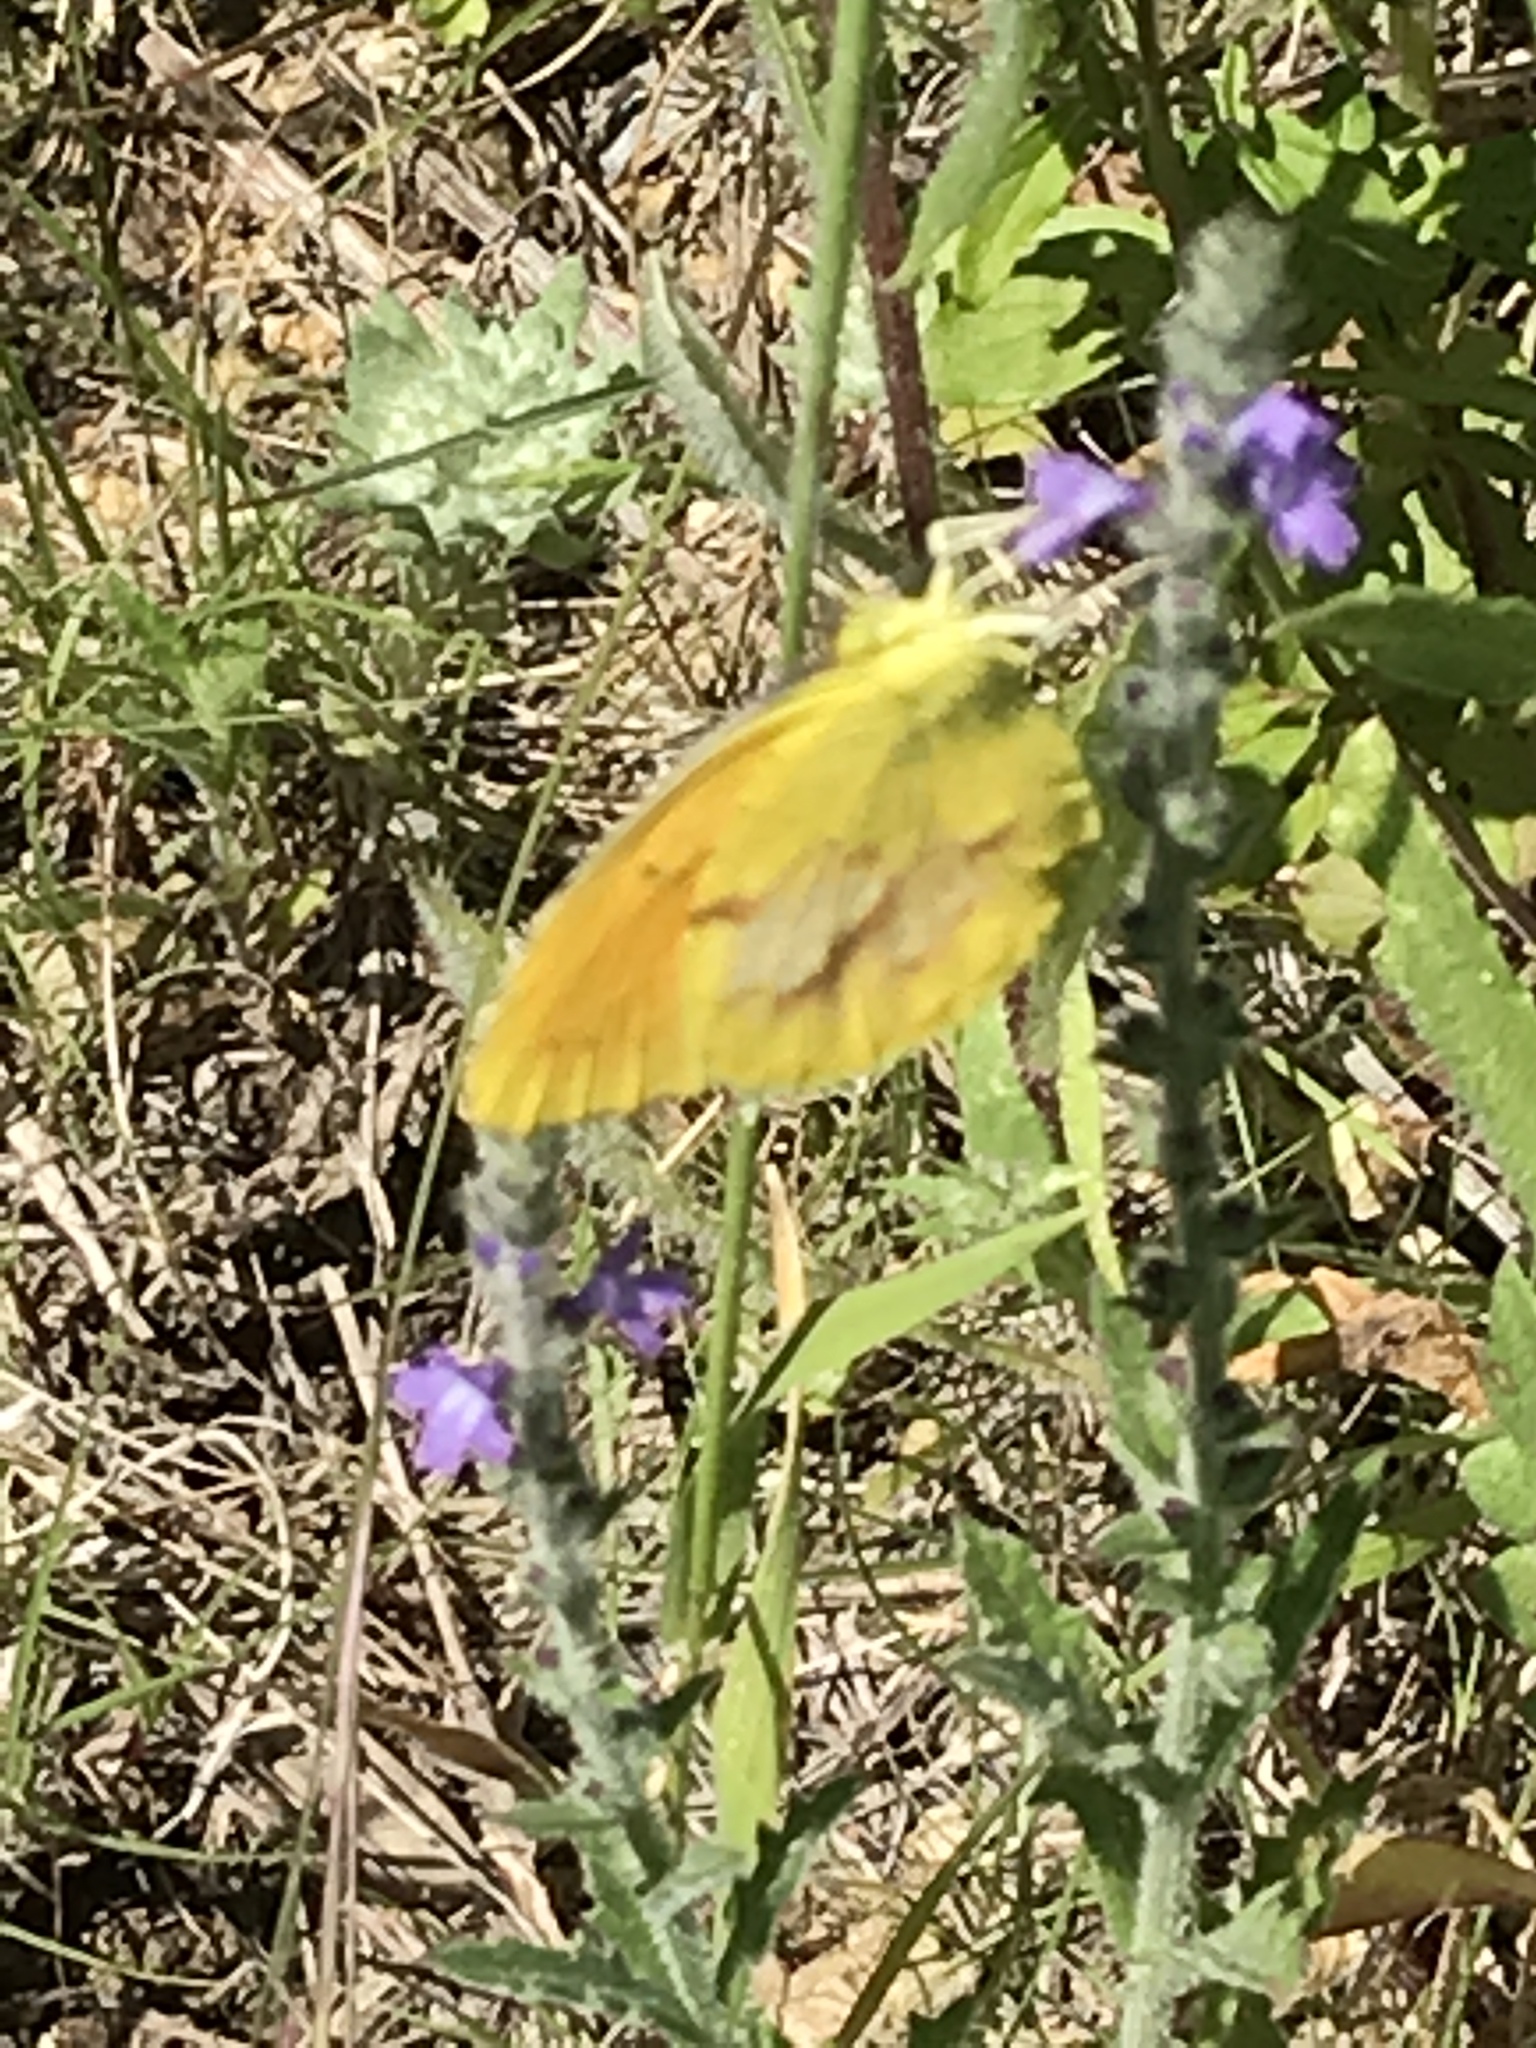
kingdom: Animalia
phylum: Arthropoda
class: Insecta
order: Lepidoptera
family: Pieridae
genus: Abaeis
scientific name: Abaeis nicippe
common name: Sleepy orange
